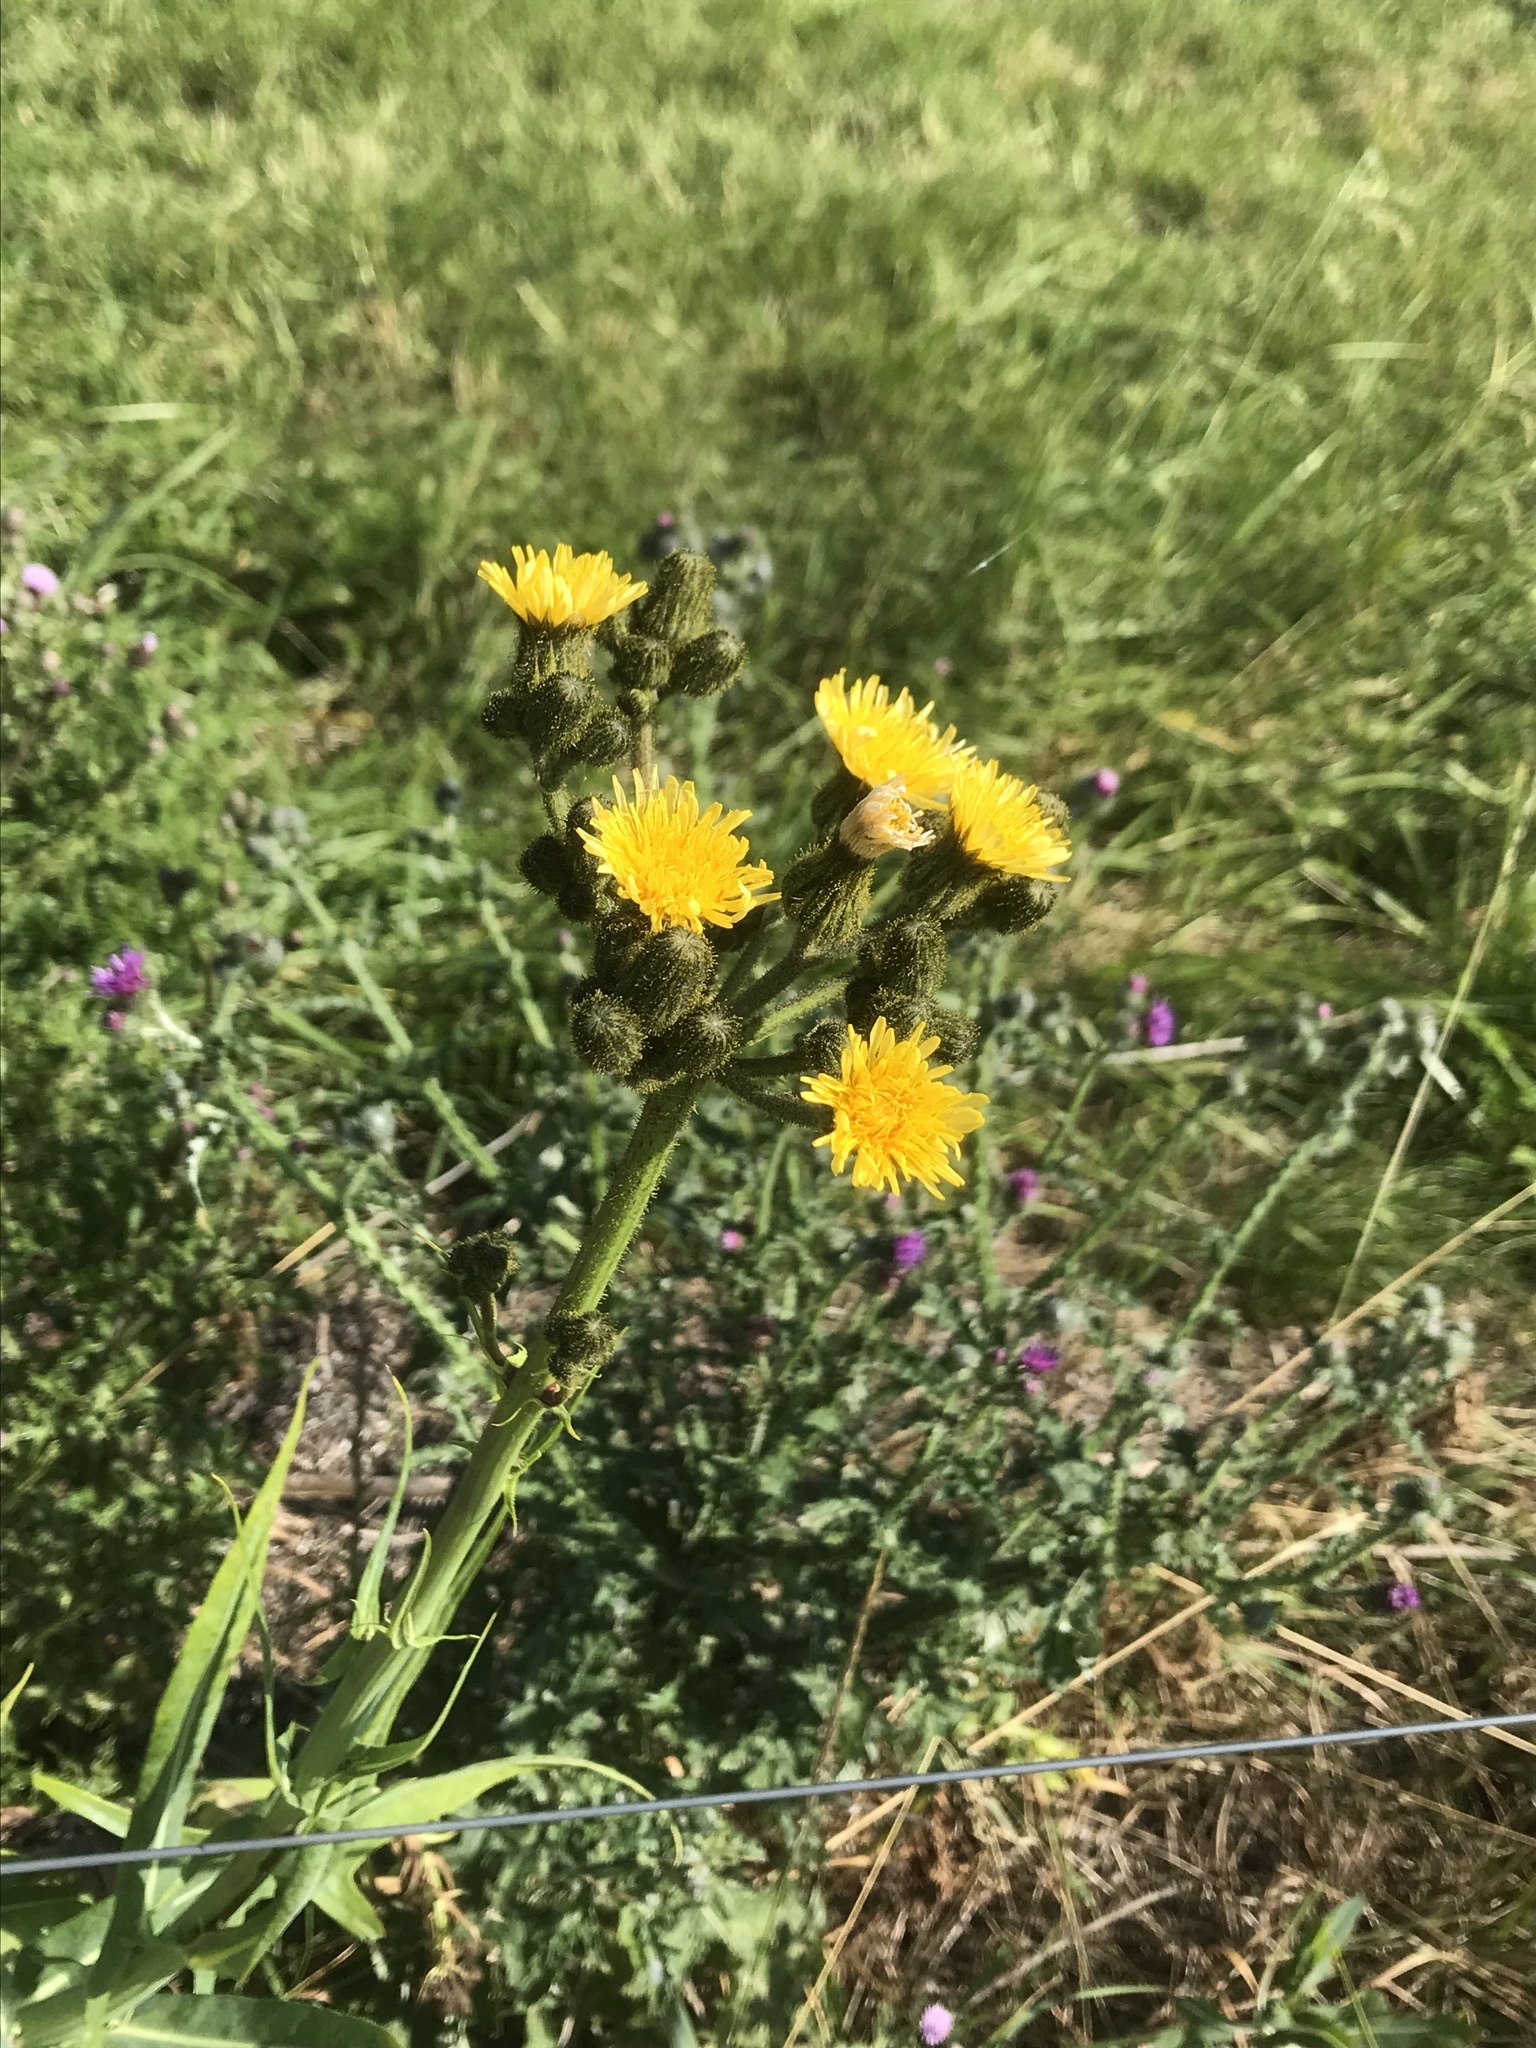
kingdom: Plantae
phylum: Tracheophyta
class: Magnoliopsida
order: Asterales
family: Asteraceae
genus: Sonchus
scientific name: Sonchus palustris
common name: Marsh sow-thistle
